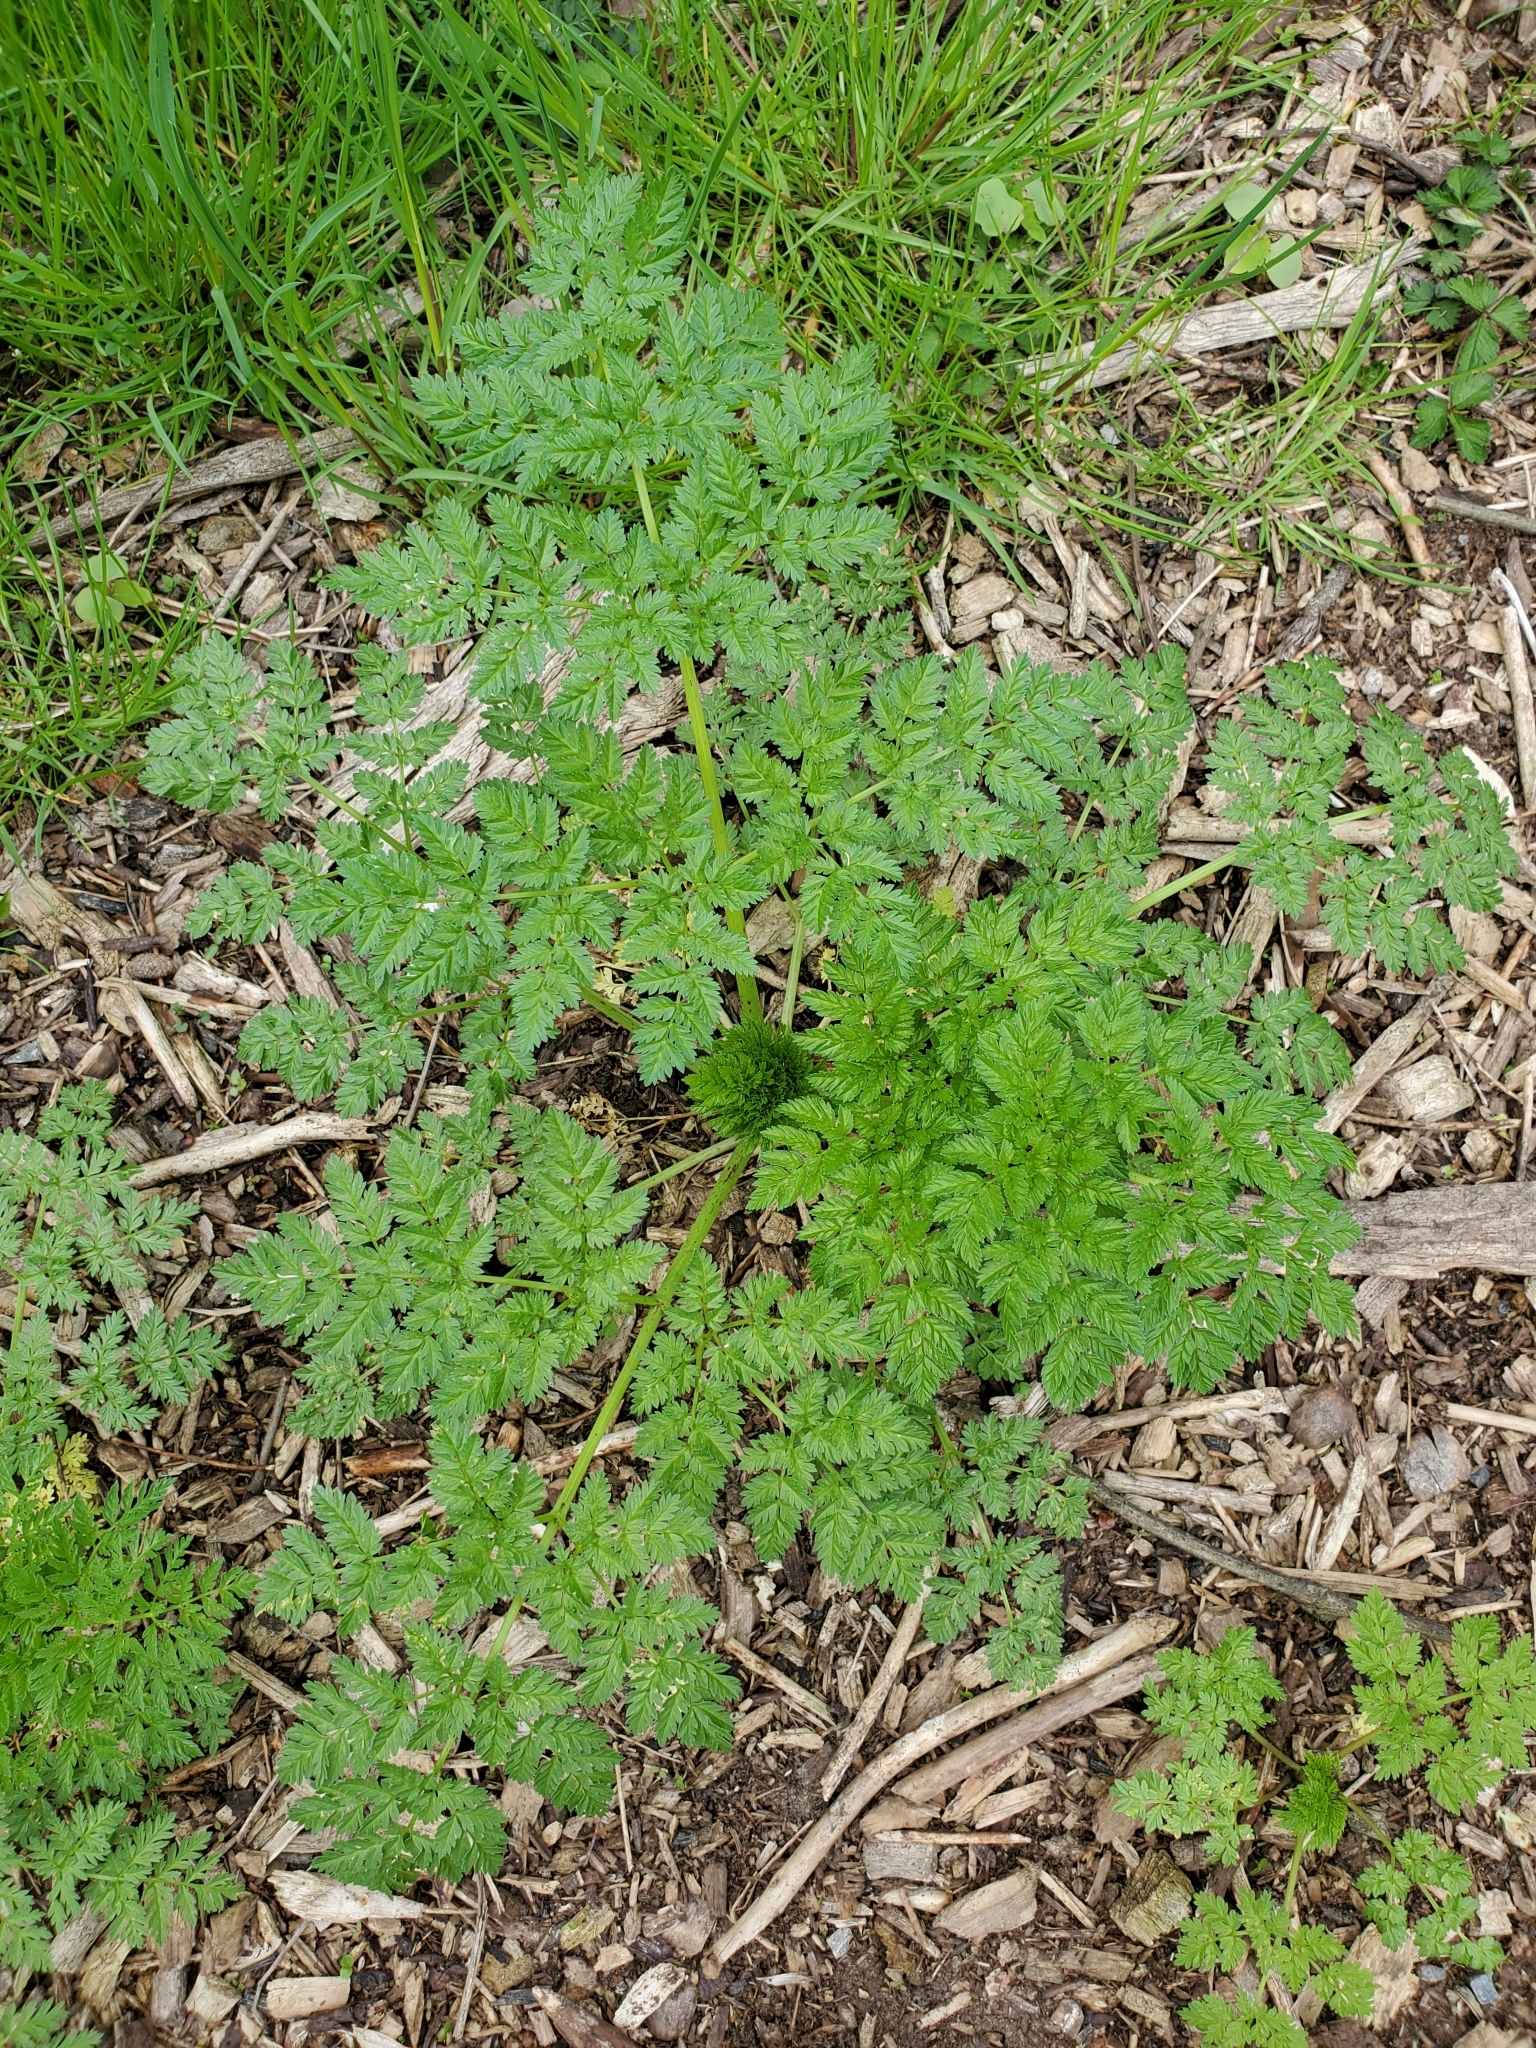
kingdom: Plantae
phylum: Tracheophyta
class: Magnoliopsida
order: Apiales
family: Apiaceae
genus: Conium
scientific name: Conium maculatum
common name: Hemlock
